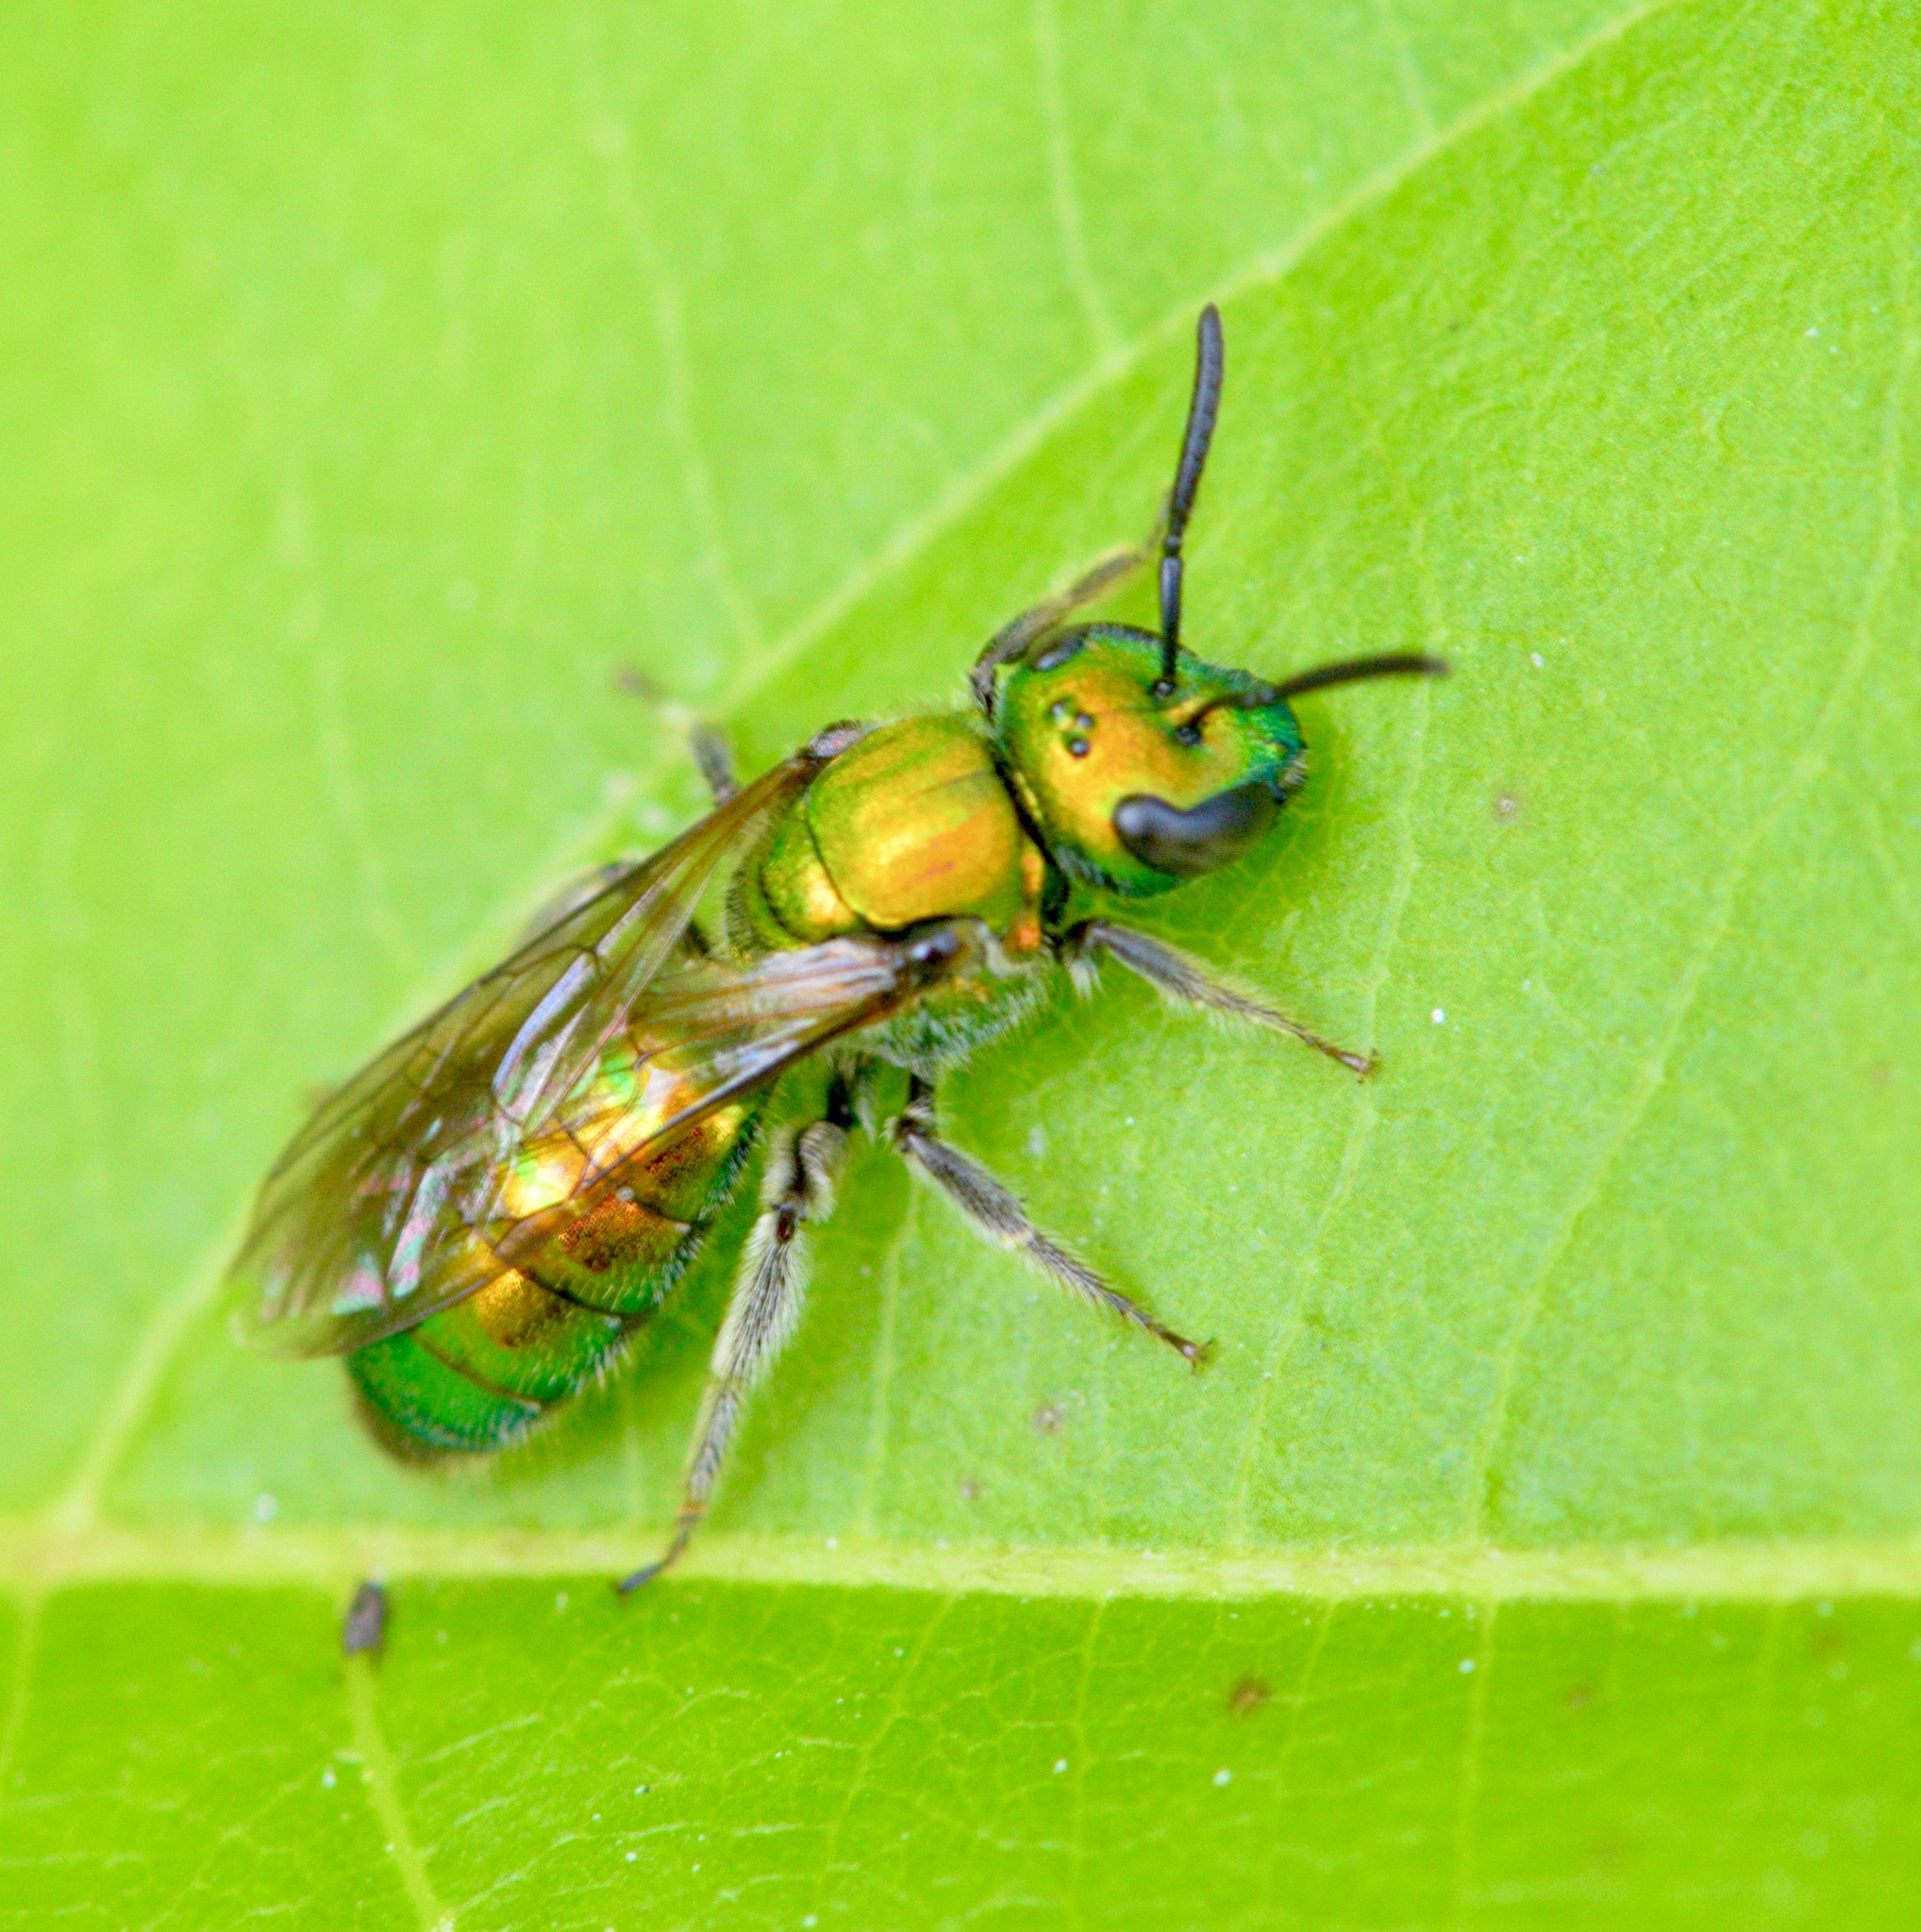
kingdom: Animalia
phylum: Arthropoda
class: Insecta
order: Hymenoptera
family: Halictidae
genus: Augochlora
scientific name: Augochlora pura
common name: Pure green sweat bee
